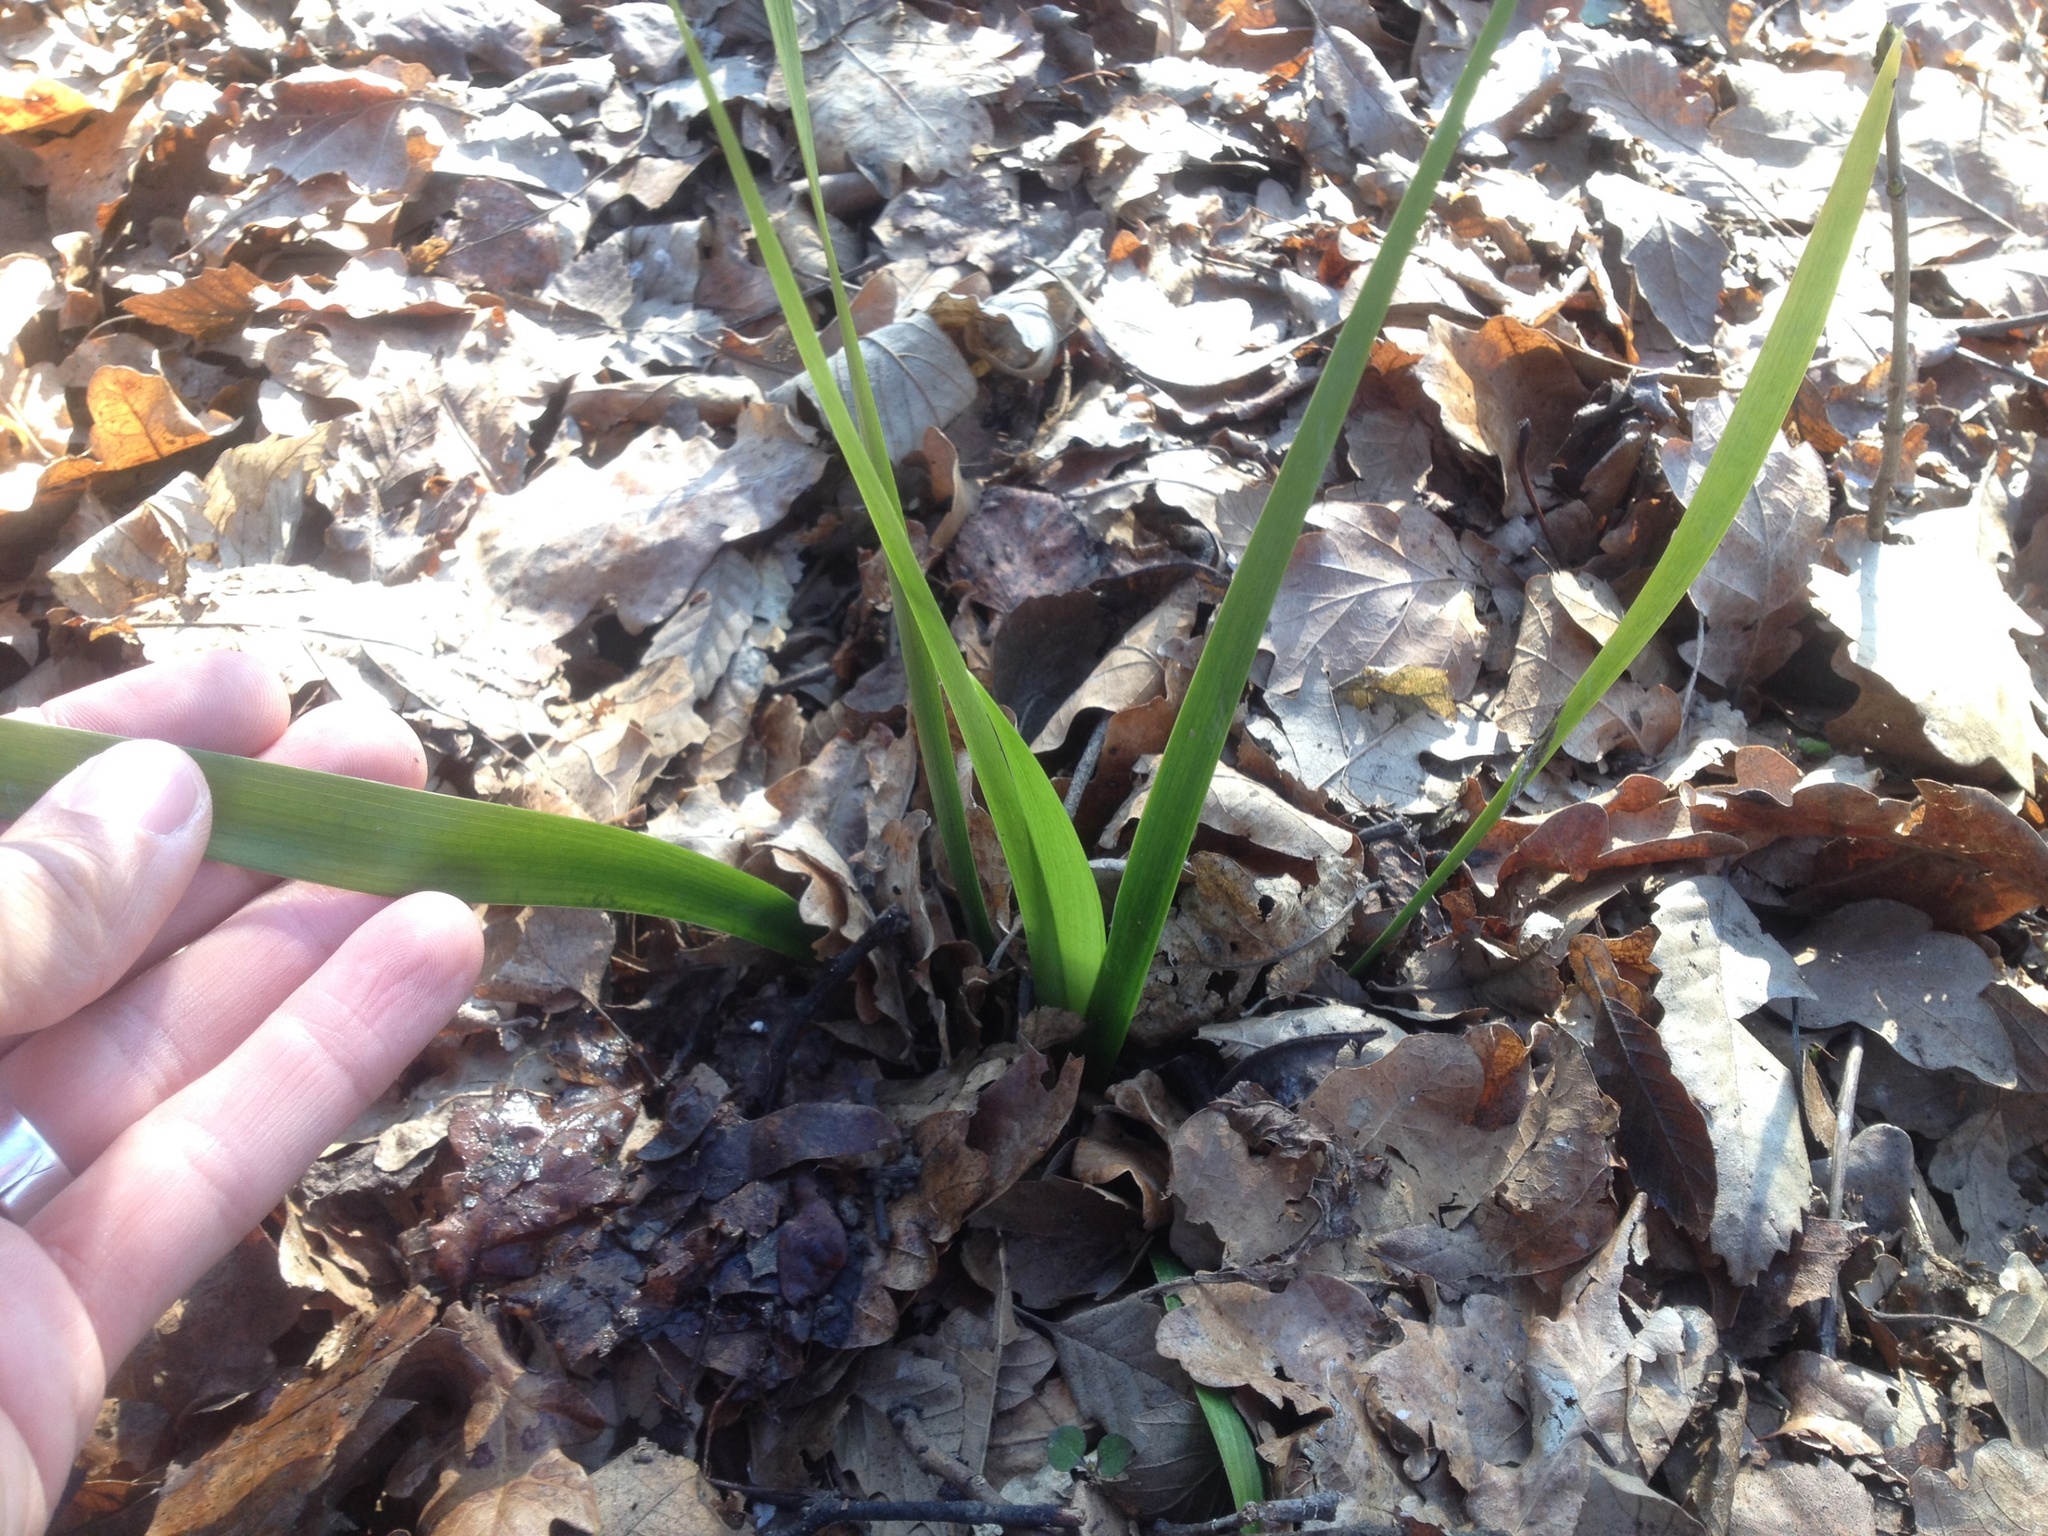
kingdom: Plantae
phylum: Tracheophyta
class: Liliopsida
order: Asparagales
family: Iridaceae
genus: Iris
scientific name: Iris foetidissima
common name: Stinking iris
